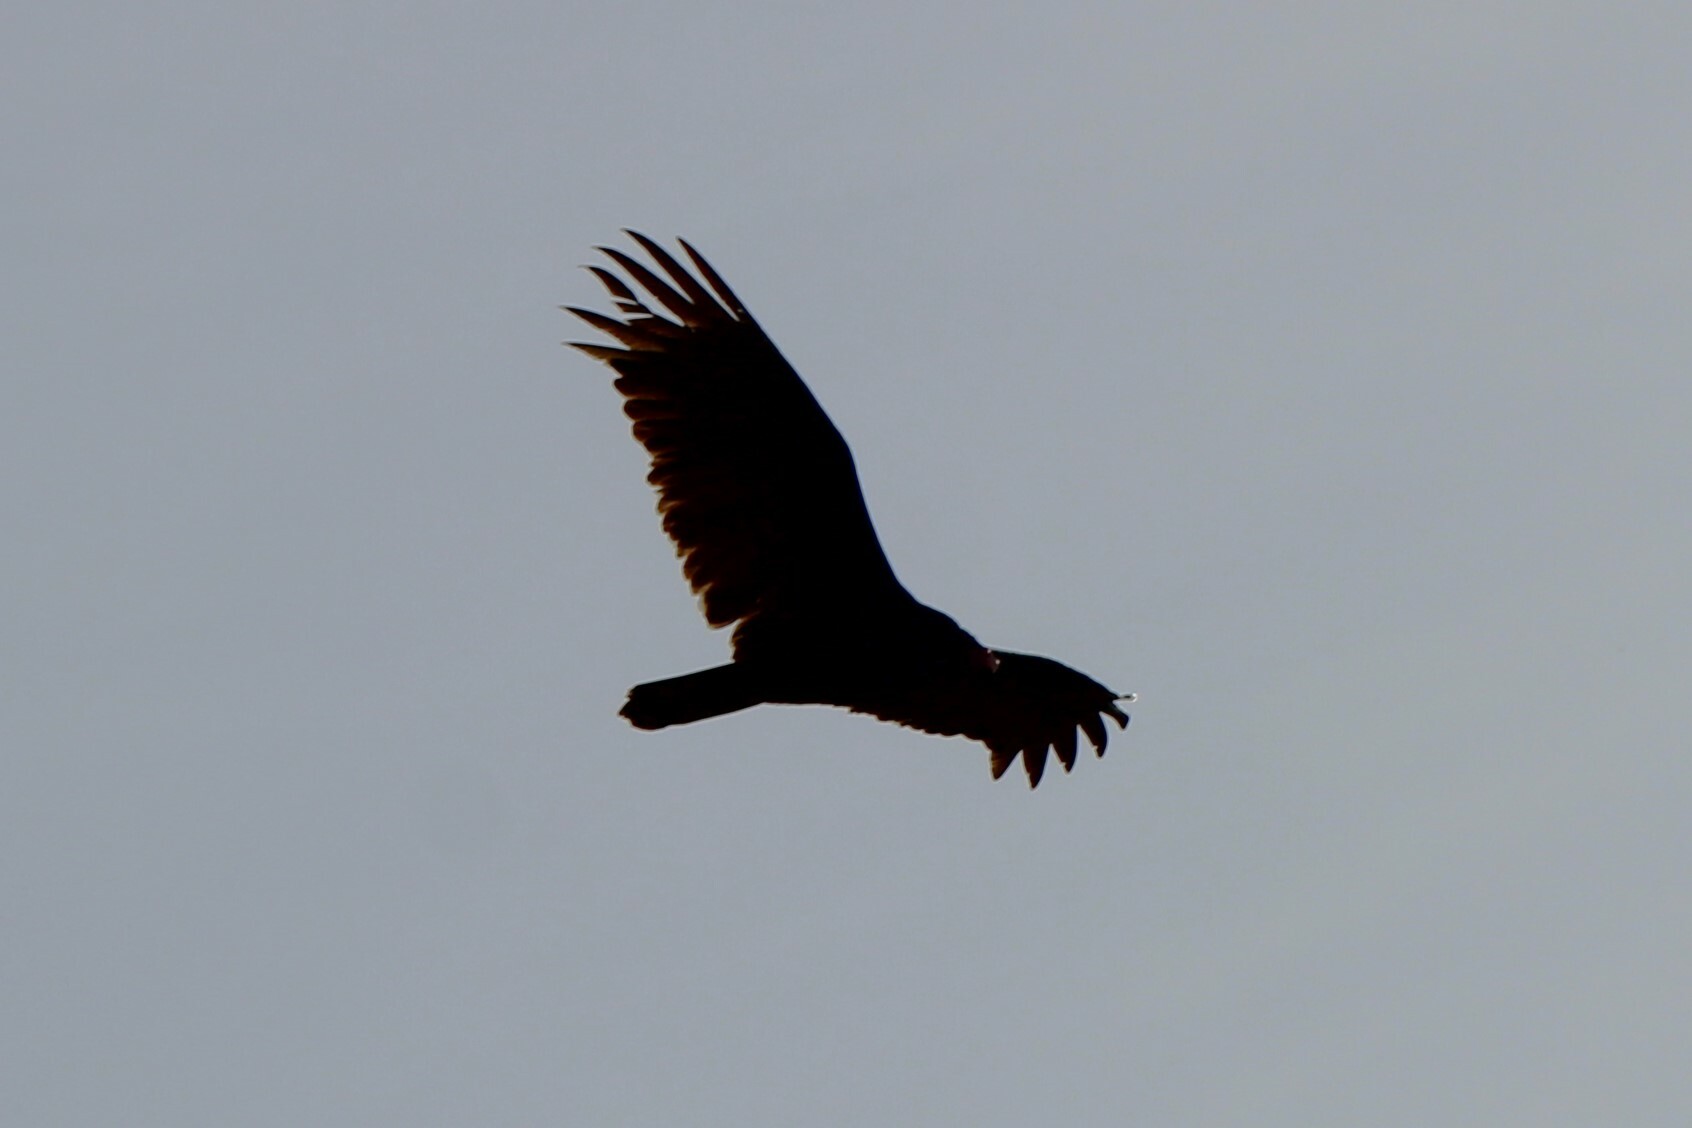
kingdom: Animalia
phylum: Chordata
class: Aves
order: Accipitriformes
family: Cathartidae
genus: Cathartes
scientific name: Cathartes aura
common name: Turkey vulture
